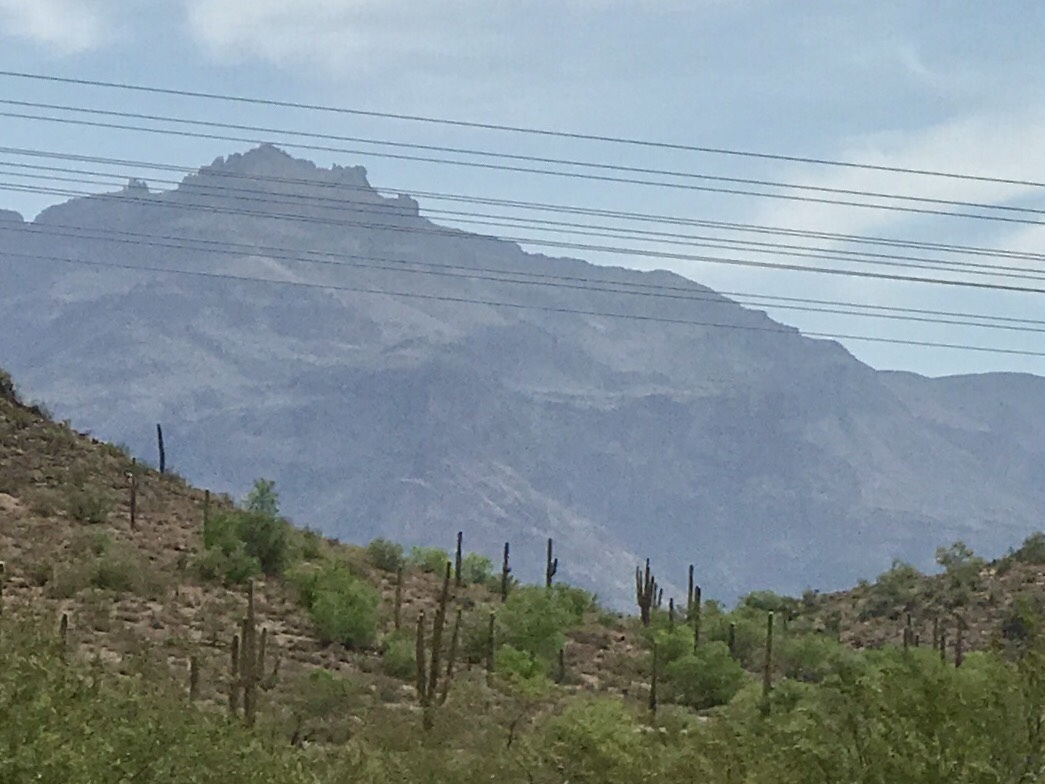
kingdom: Plantae
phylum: Tracheophyta
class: Magnoliopsida
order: Caryophyllales
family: Cactaceae
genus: Carnegiea
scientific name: Carnegiea gigantea
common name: Saguaro
